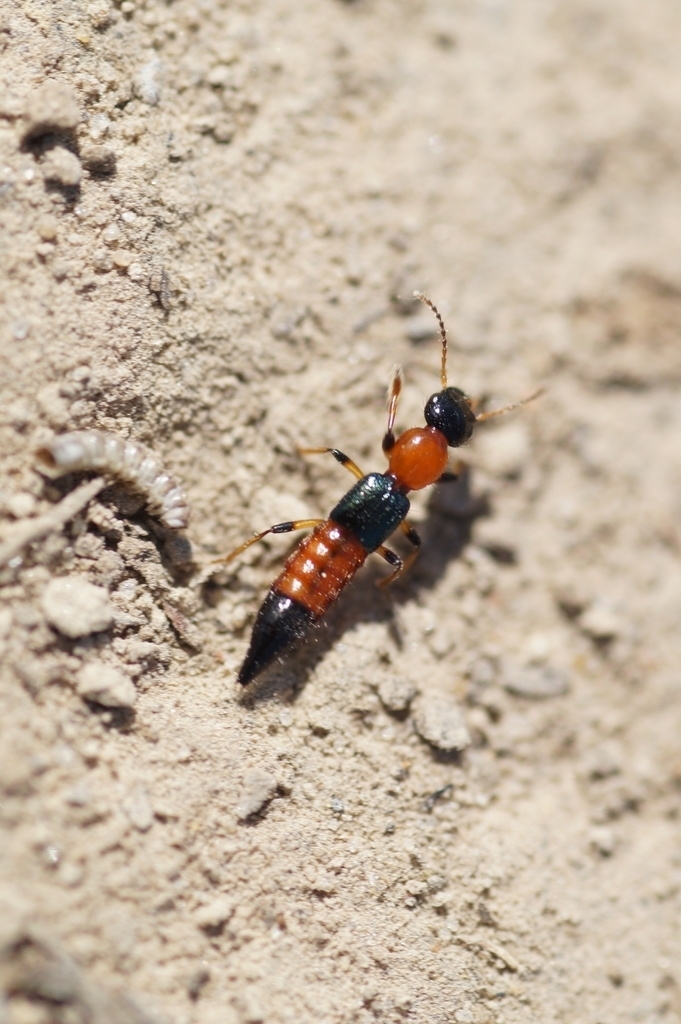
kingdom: Animalia
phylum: Arthropoda
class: Insecta
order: Coleoptera
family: Staphylinidae
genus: Paederus
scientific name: Paederus littoralis
